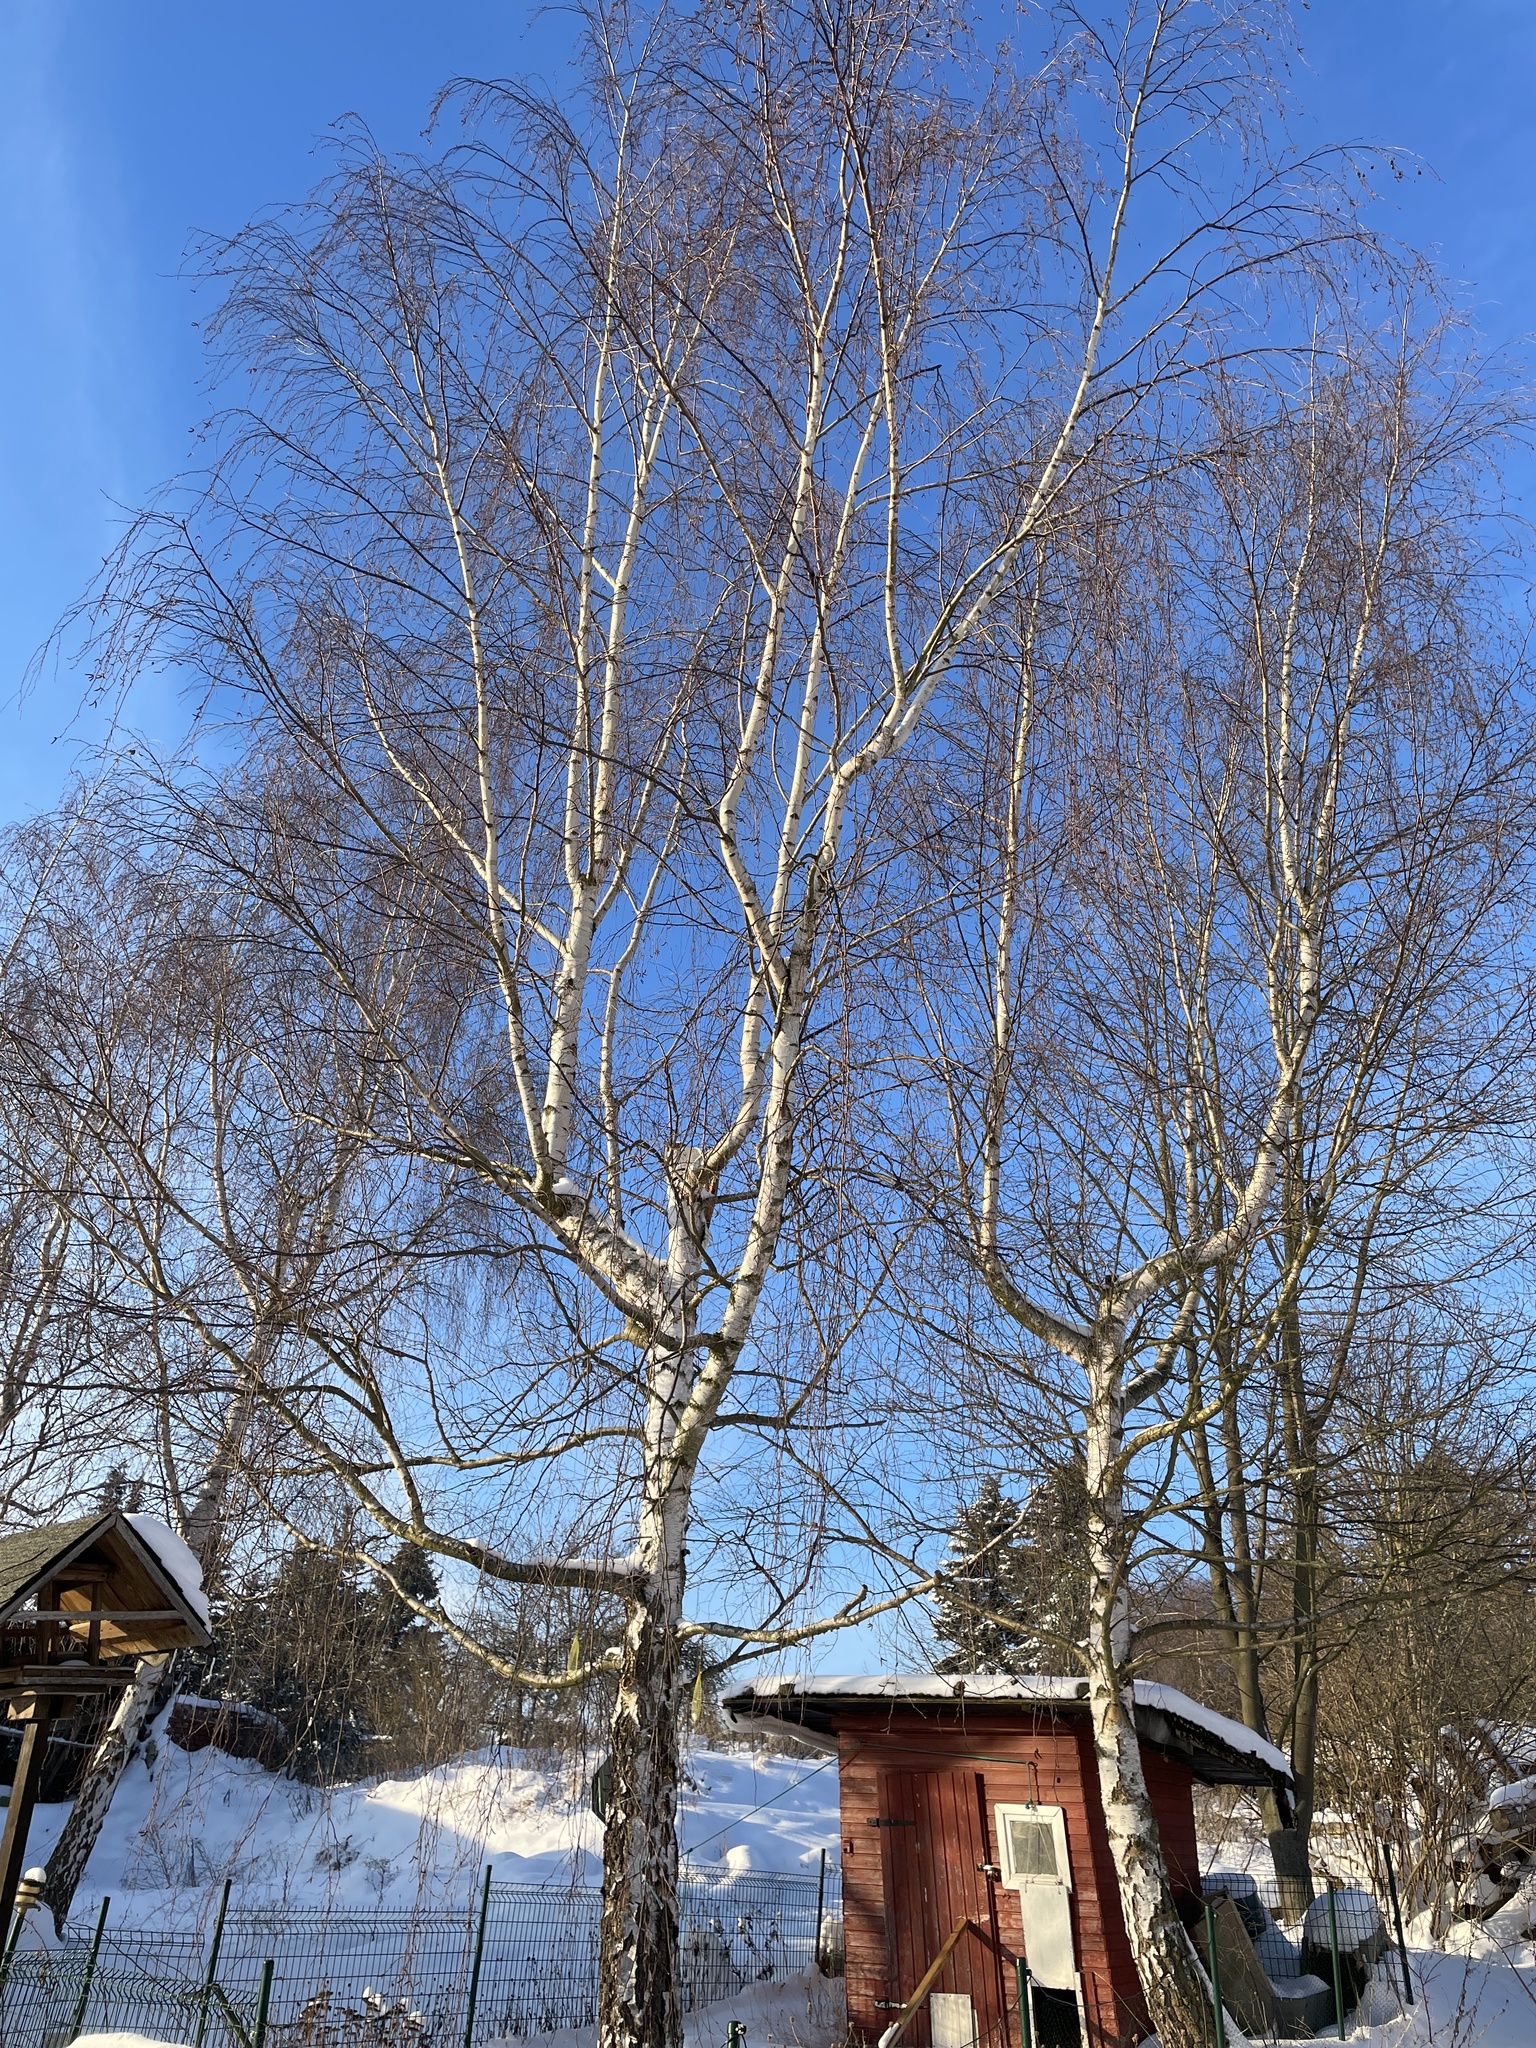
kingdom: Plantae
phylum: Tracheophyta
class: Magnoliopsida
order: Fagales
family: Betulaceae
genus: Betula
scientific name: Betula pendula
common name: Silver birch
